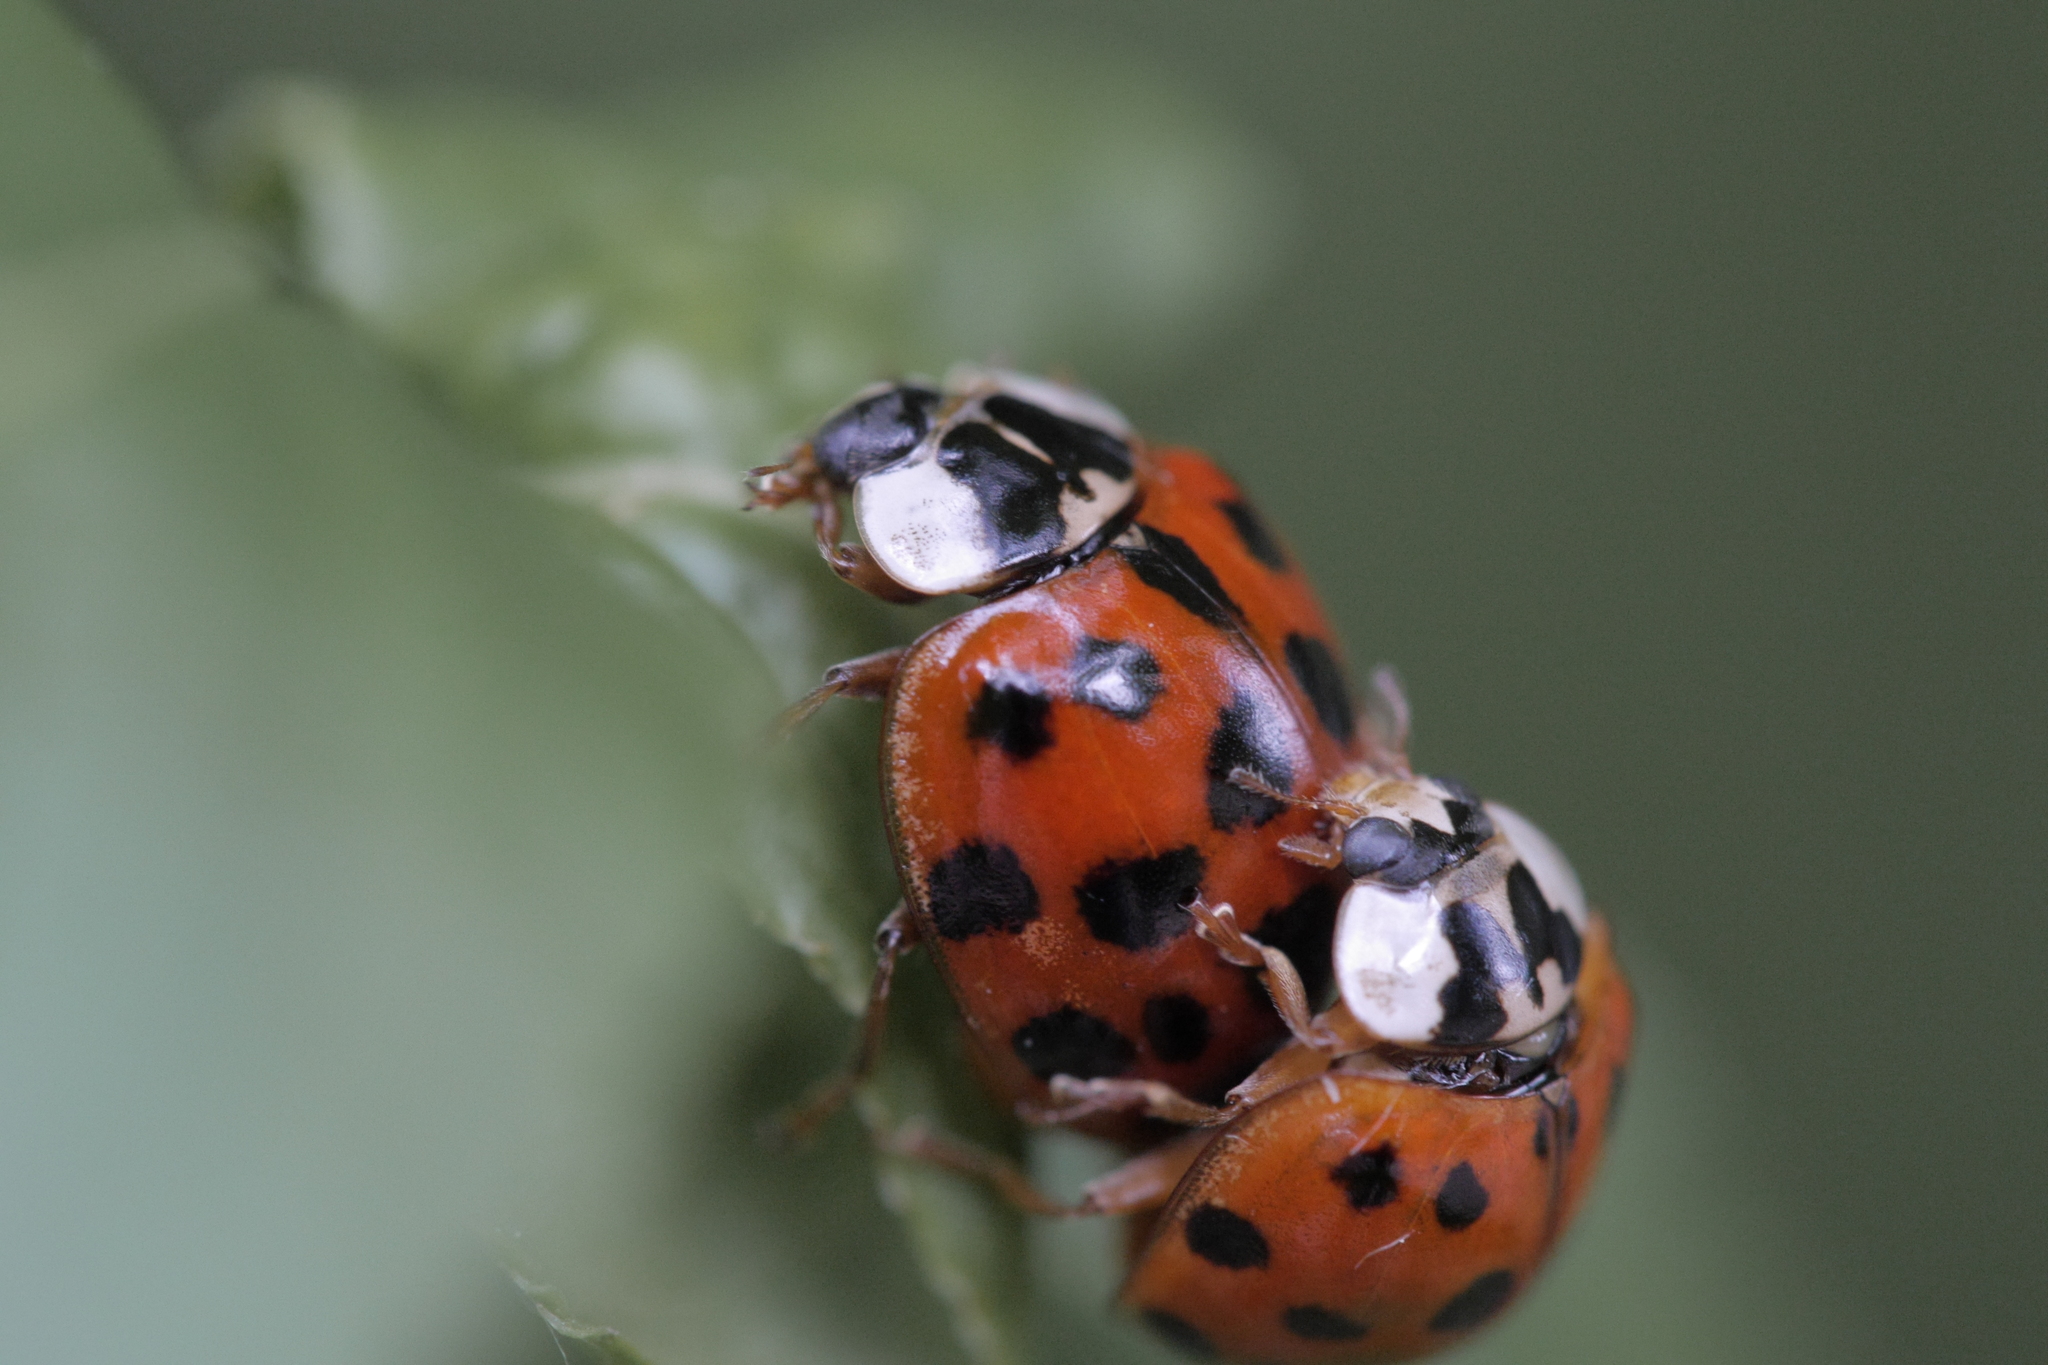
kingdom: Animalia
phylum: Arthropoda
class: Insecta
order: Coleoptera
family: Coccinellidae
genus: Harmonia
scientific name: Harmonia axyridis
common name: Harlequin ladybird
